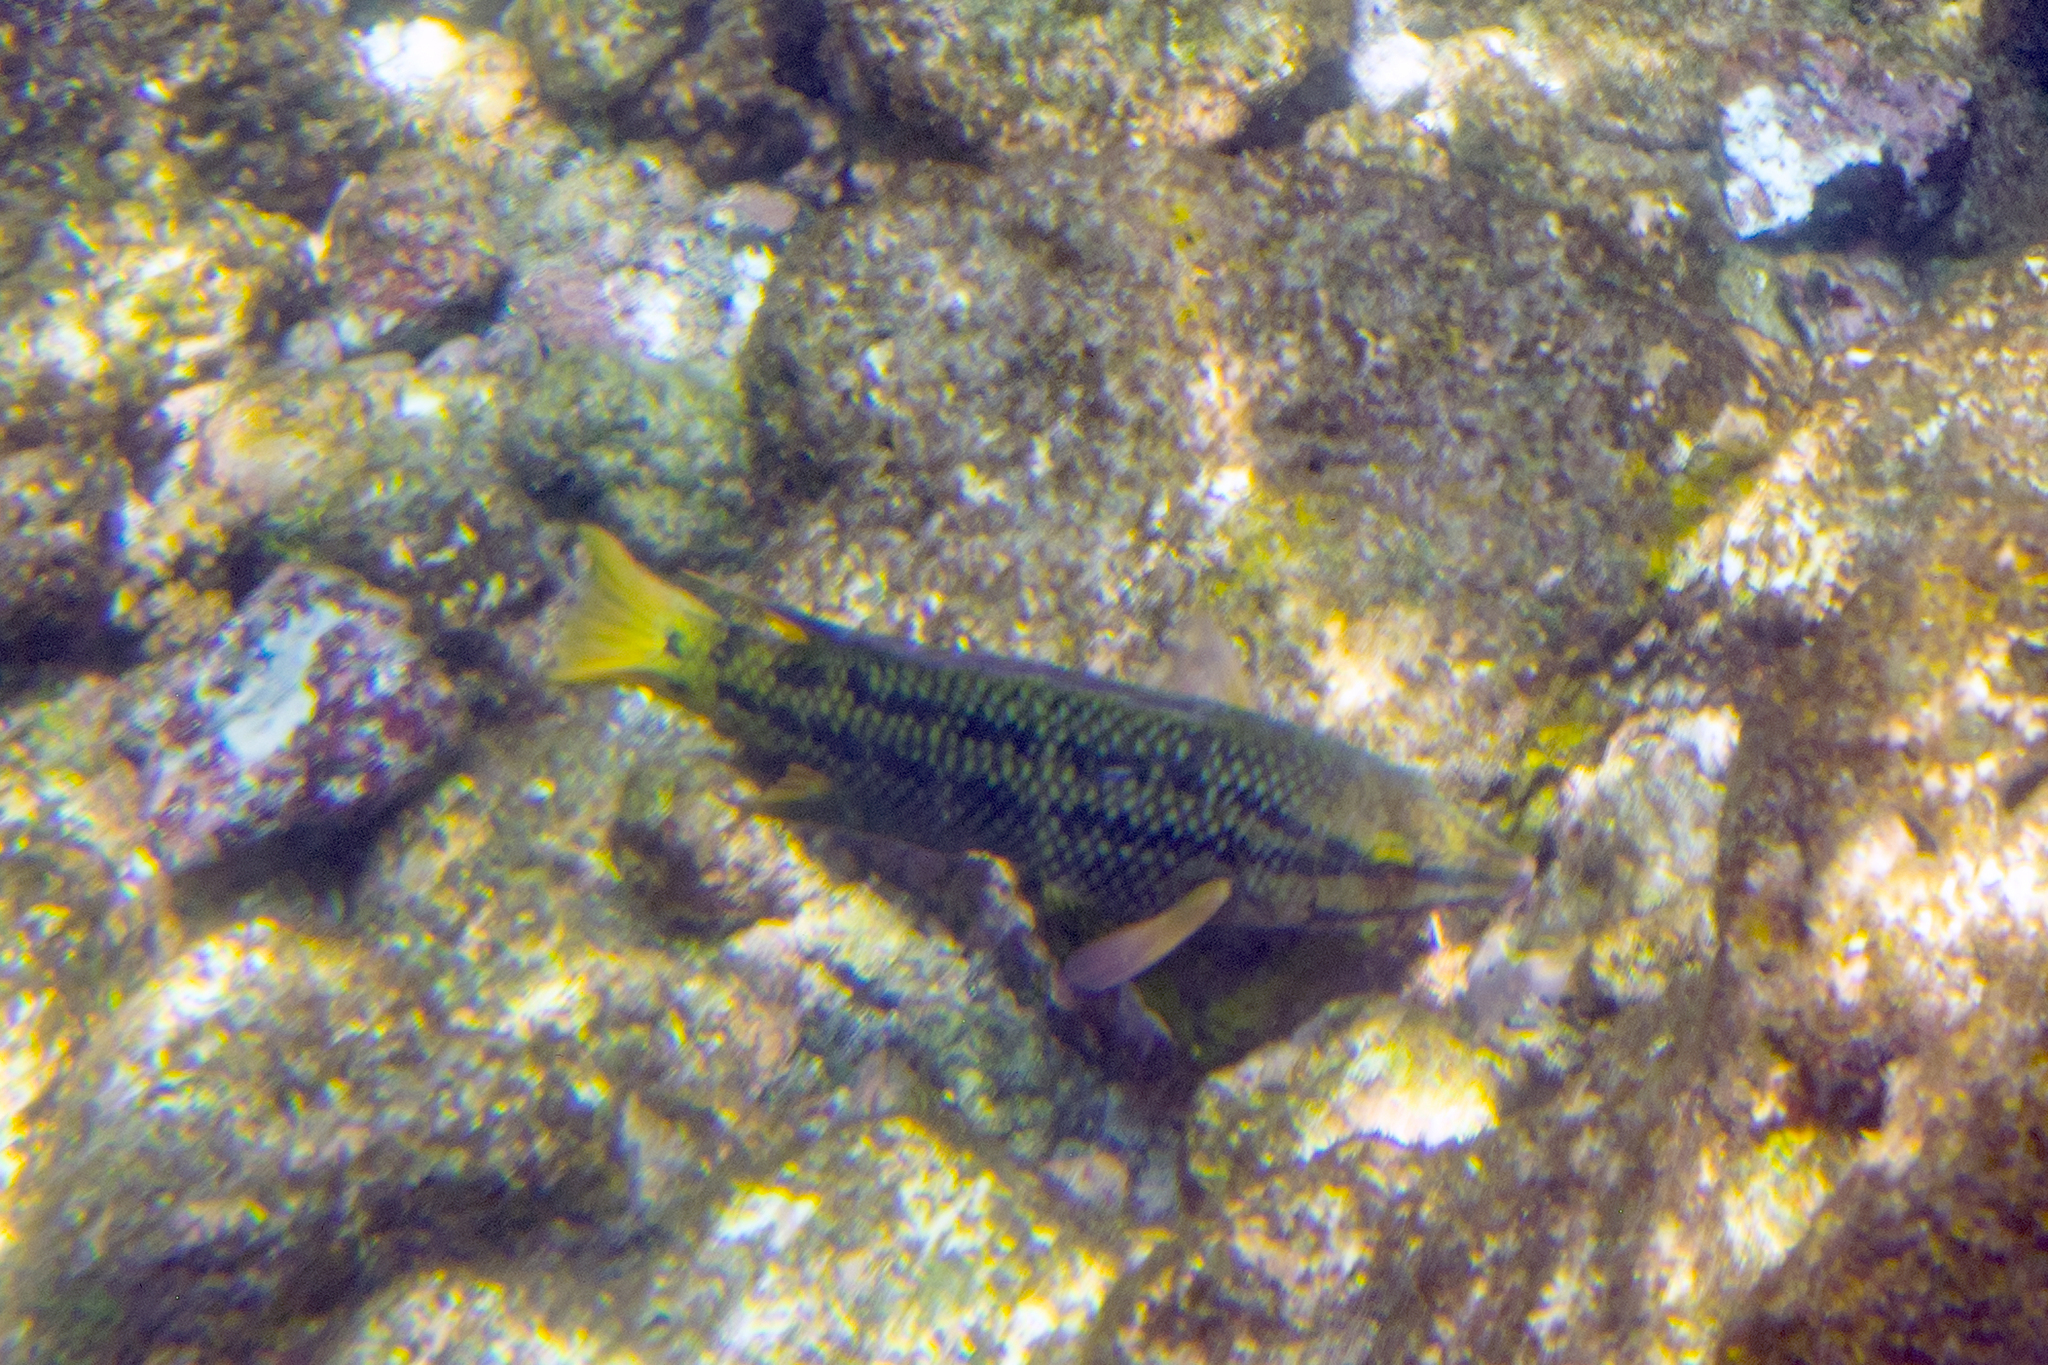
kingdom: Animalia
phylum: Chordata
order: Perciformes
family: Labridae
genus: Bodianus
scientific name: Bodianus diplotaenia
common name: Mexican hogfish
